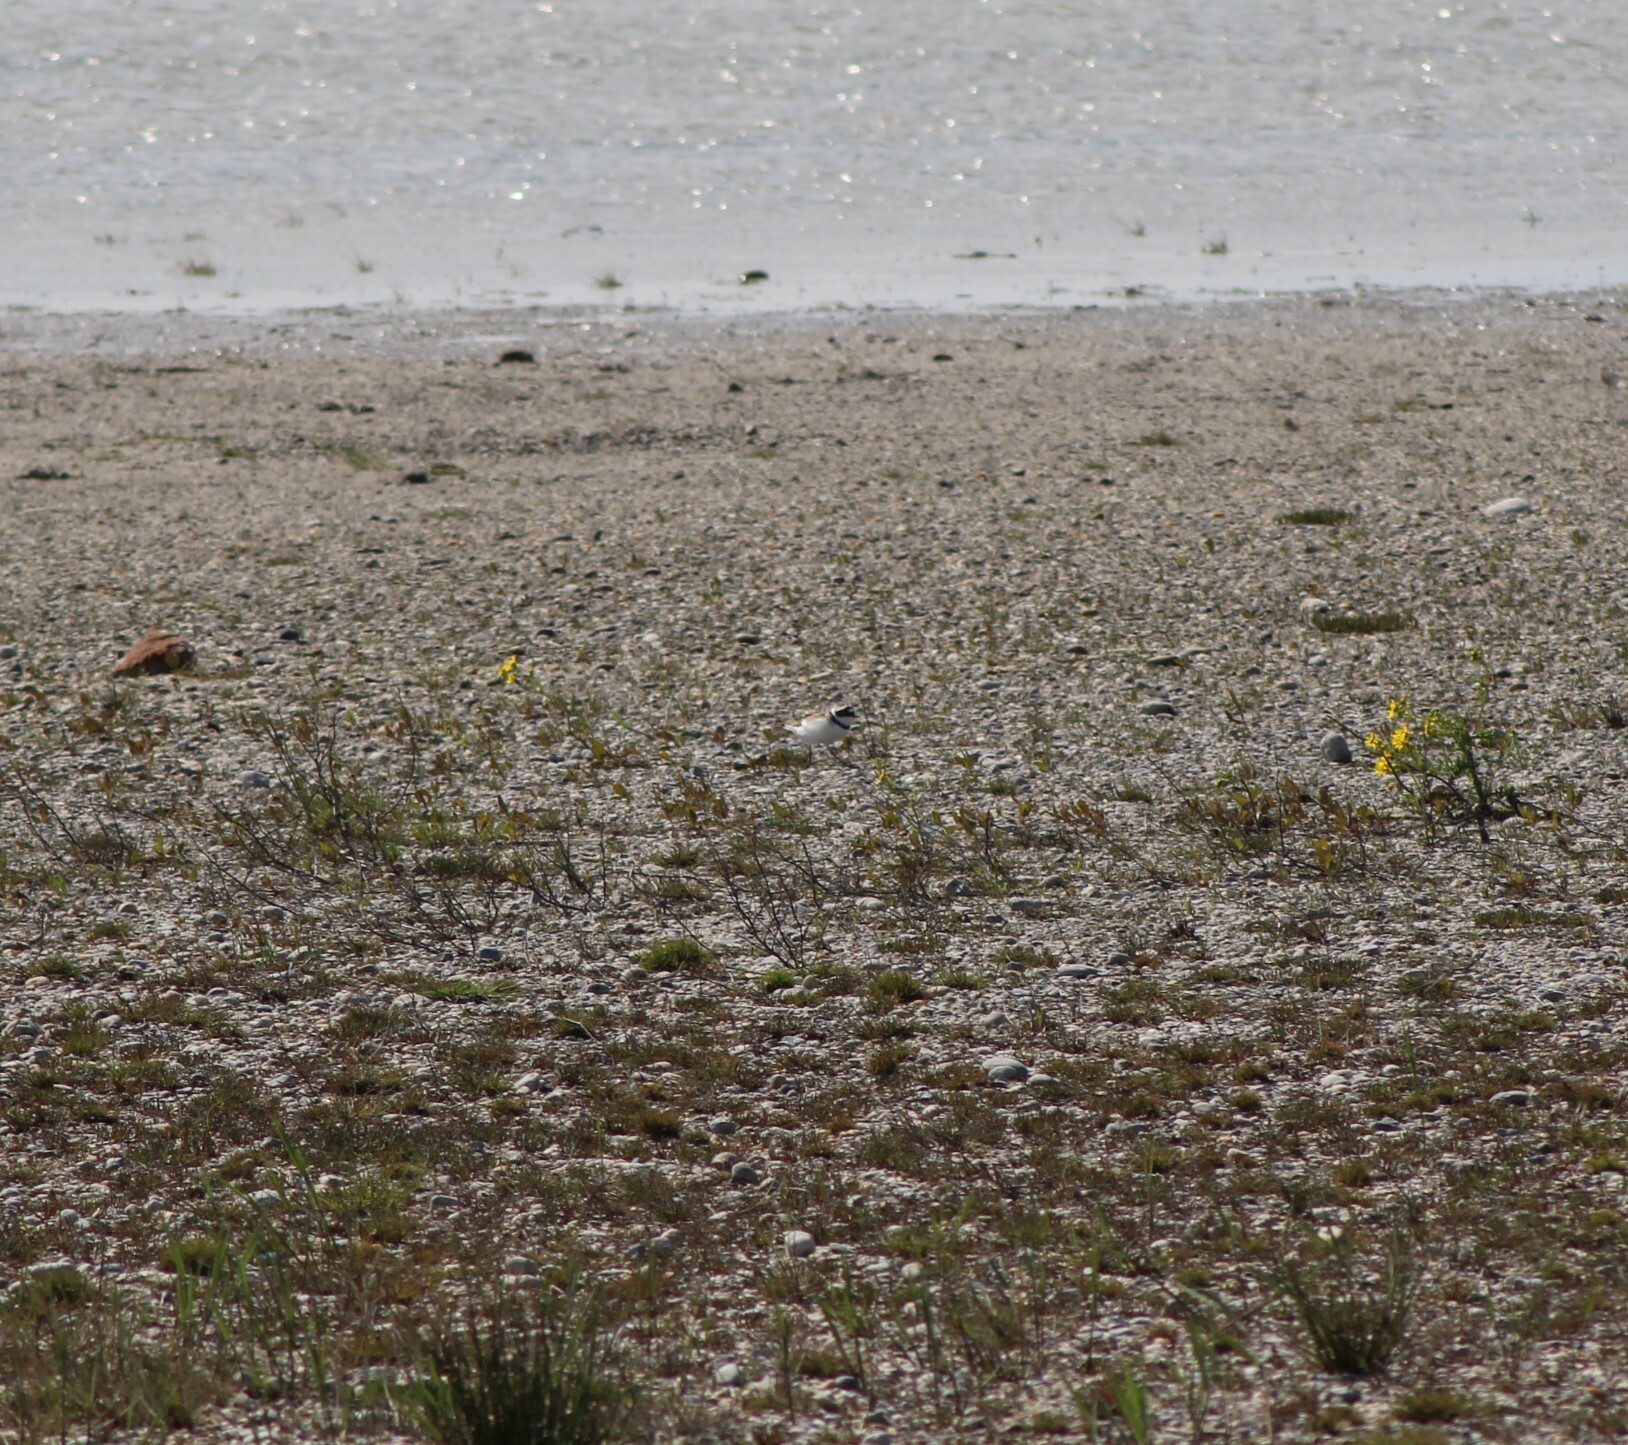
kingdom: Animalia
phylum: Chordata
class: Aves
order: Charadriiformes
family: Charadriidae
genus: Charadrius
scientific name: Charadrius dubius
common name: Little ringed plover
